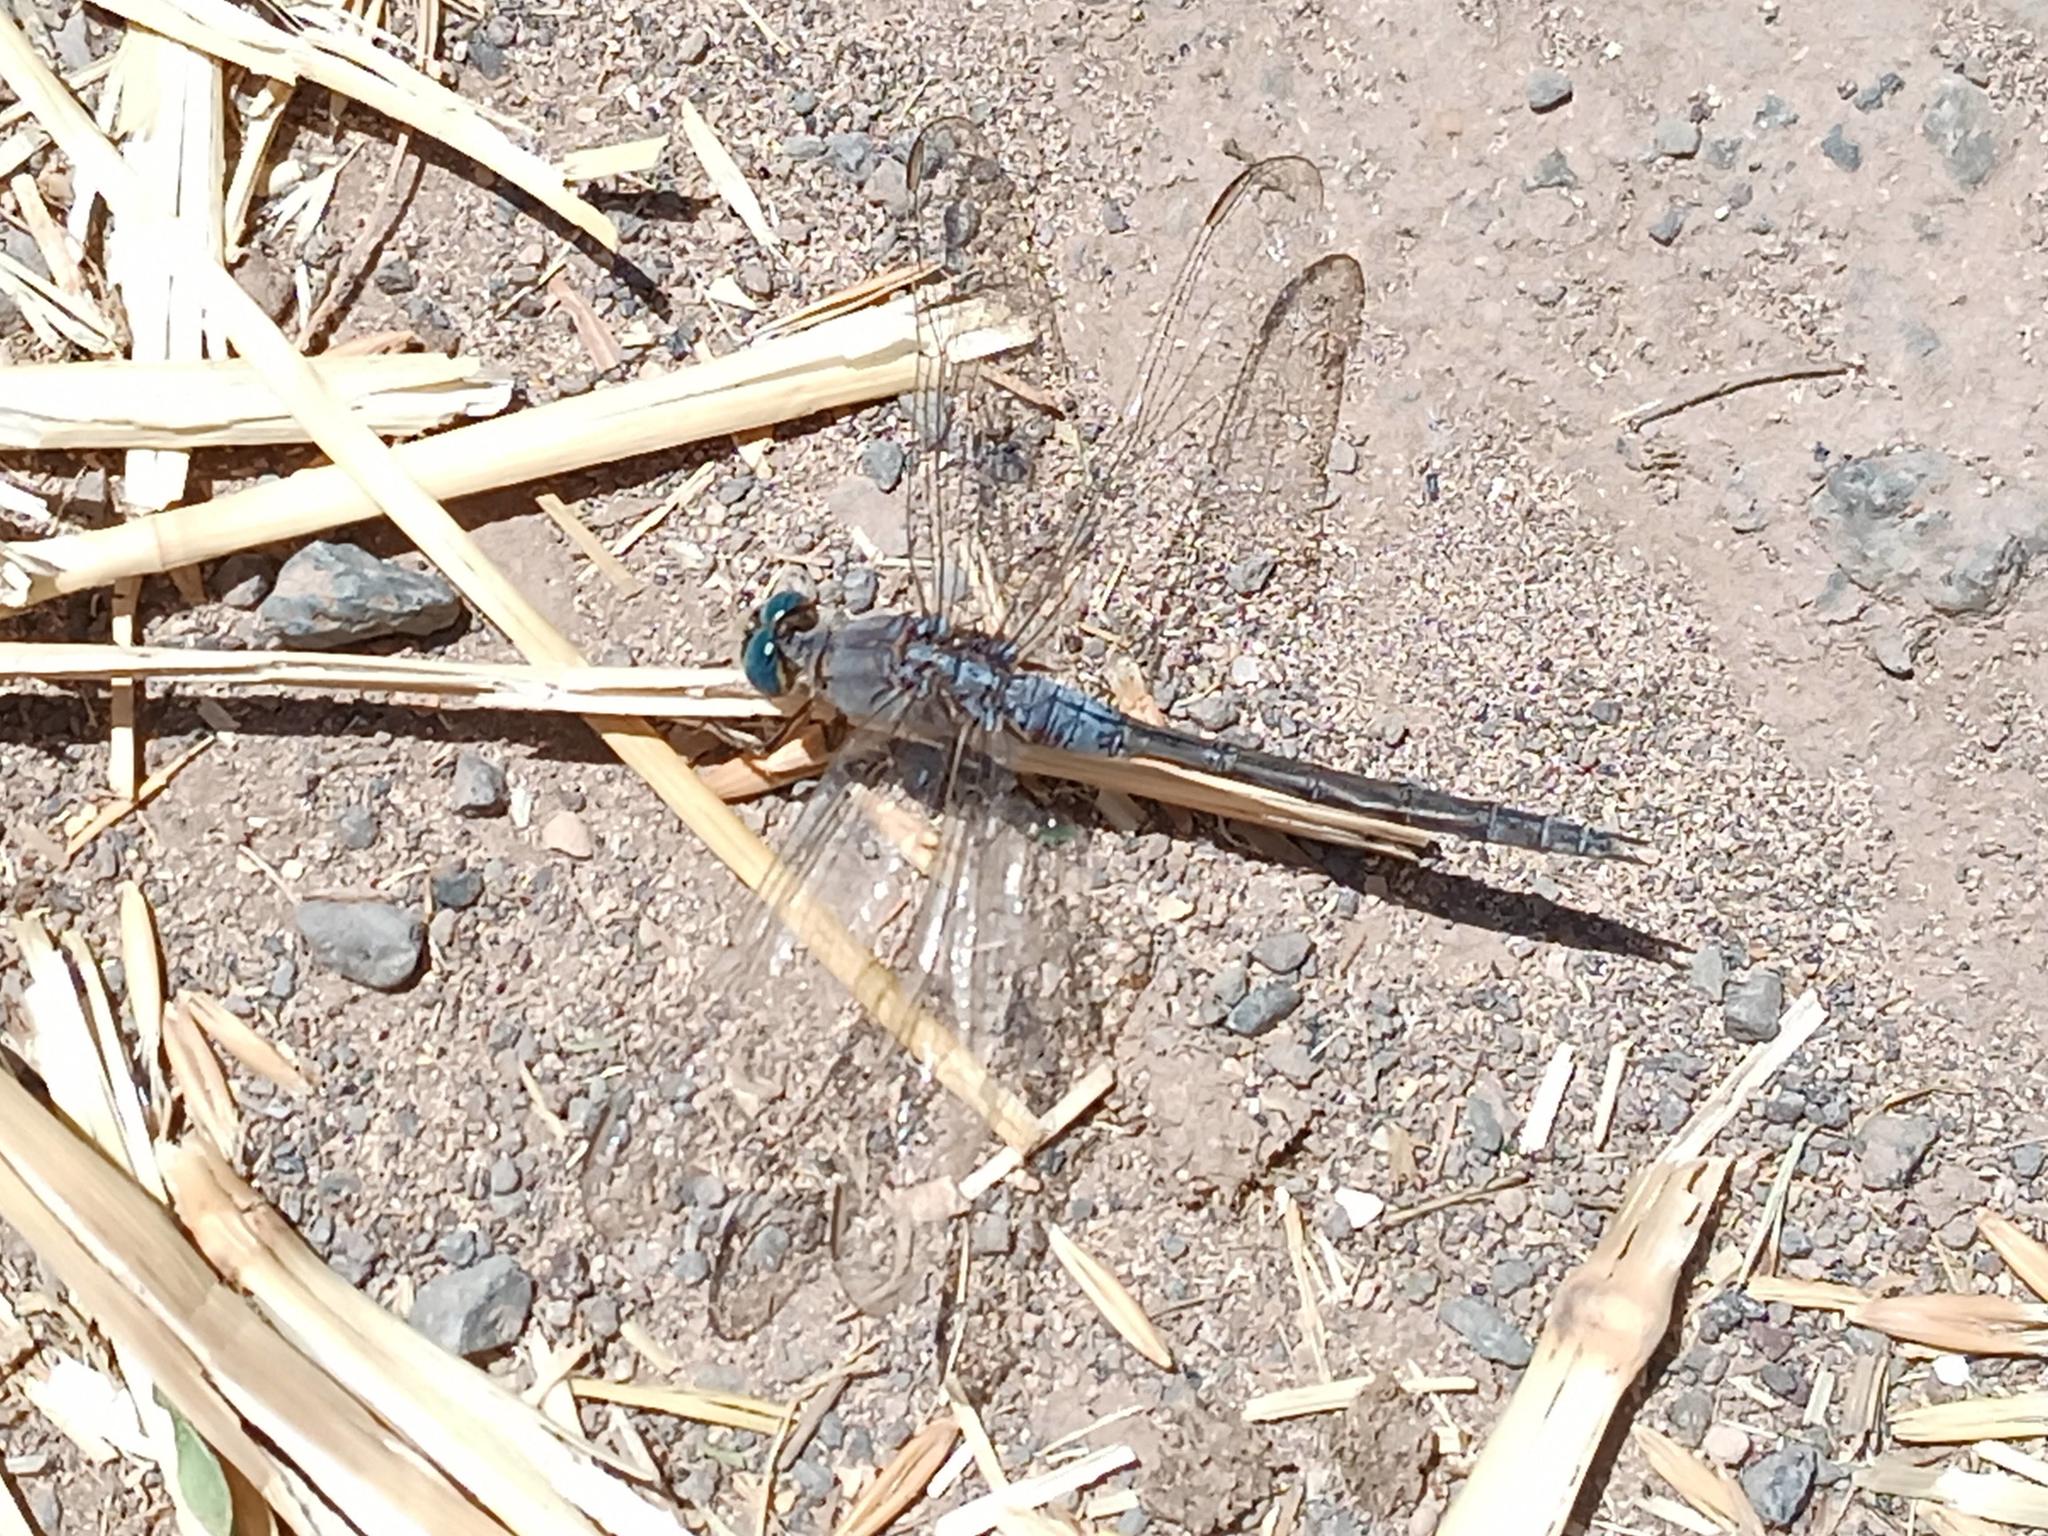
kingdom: Animalia
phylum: Arthropoda
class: Insecta
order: Odonata
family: Libellulidae
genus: Orthetrum
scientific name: Orthetrum trinacria
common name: Long skimmer
